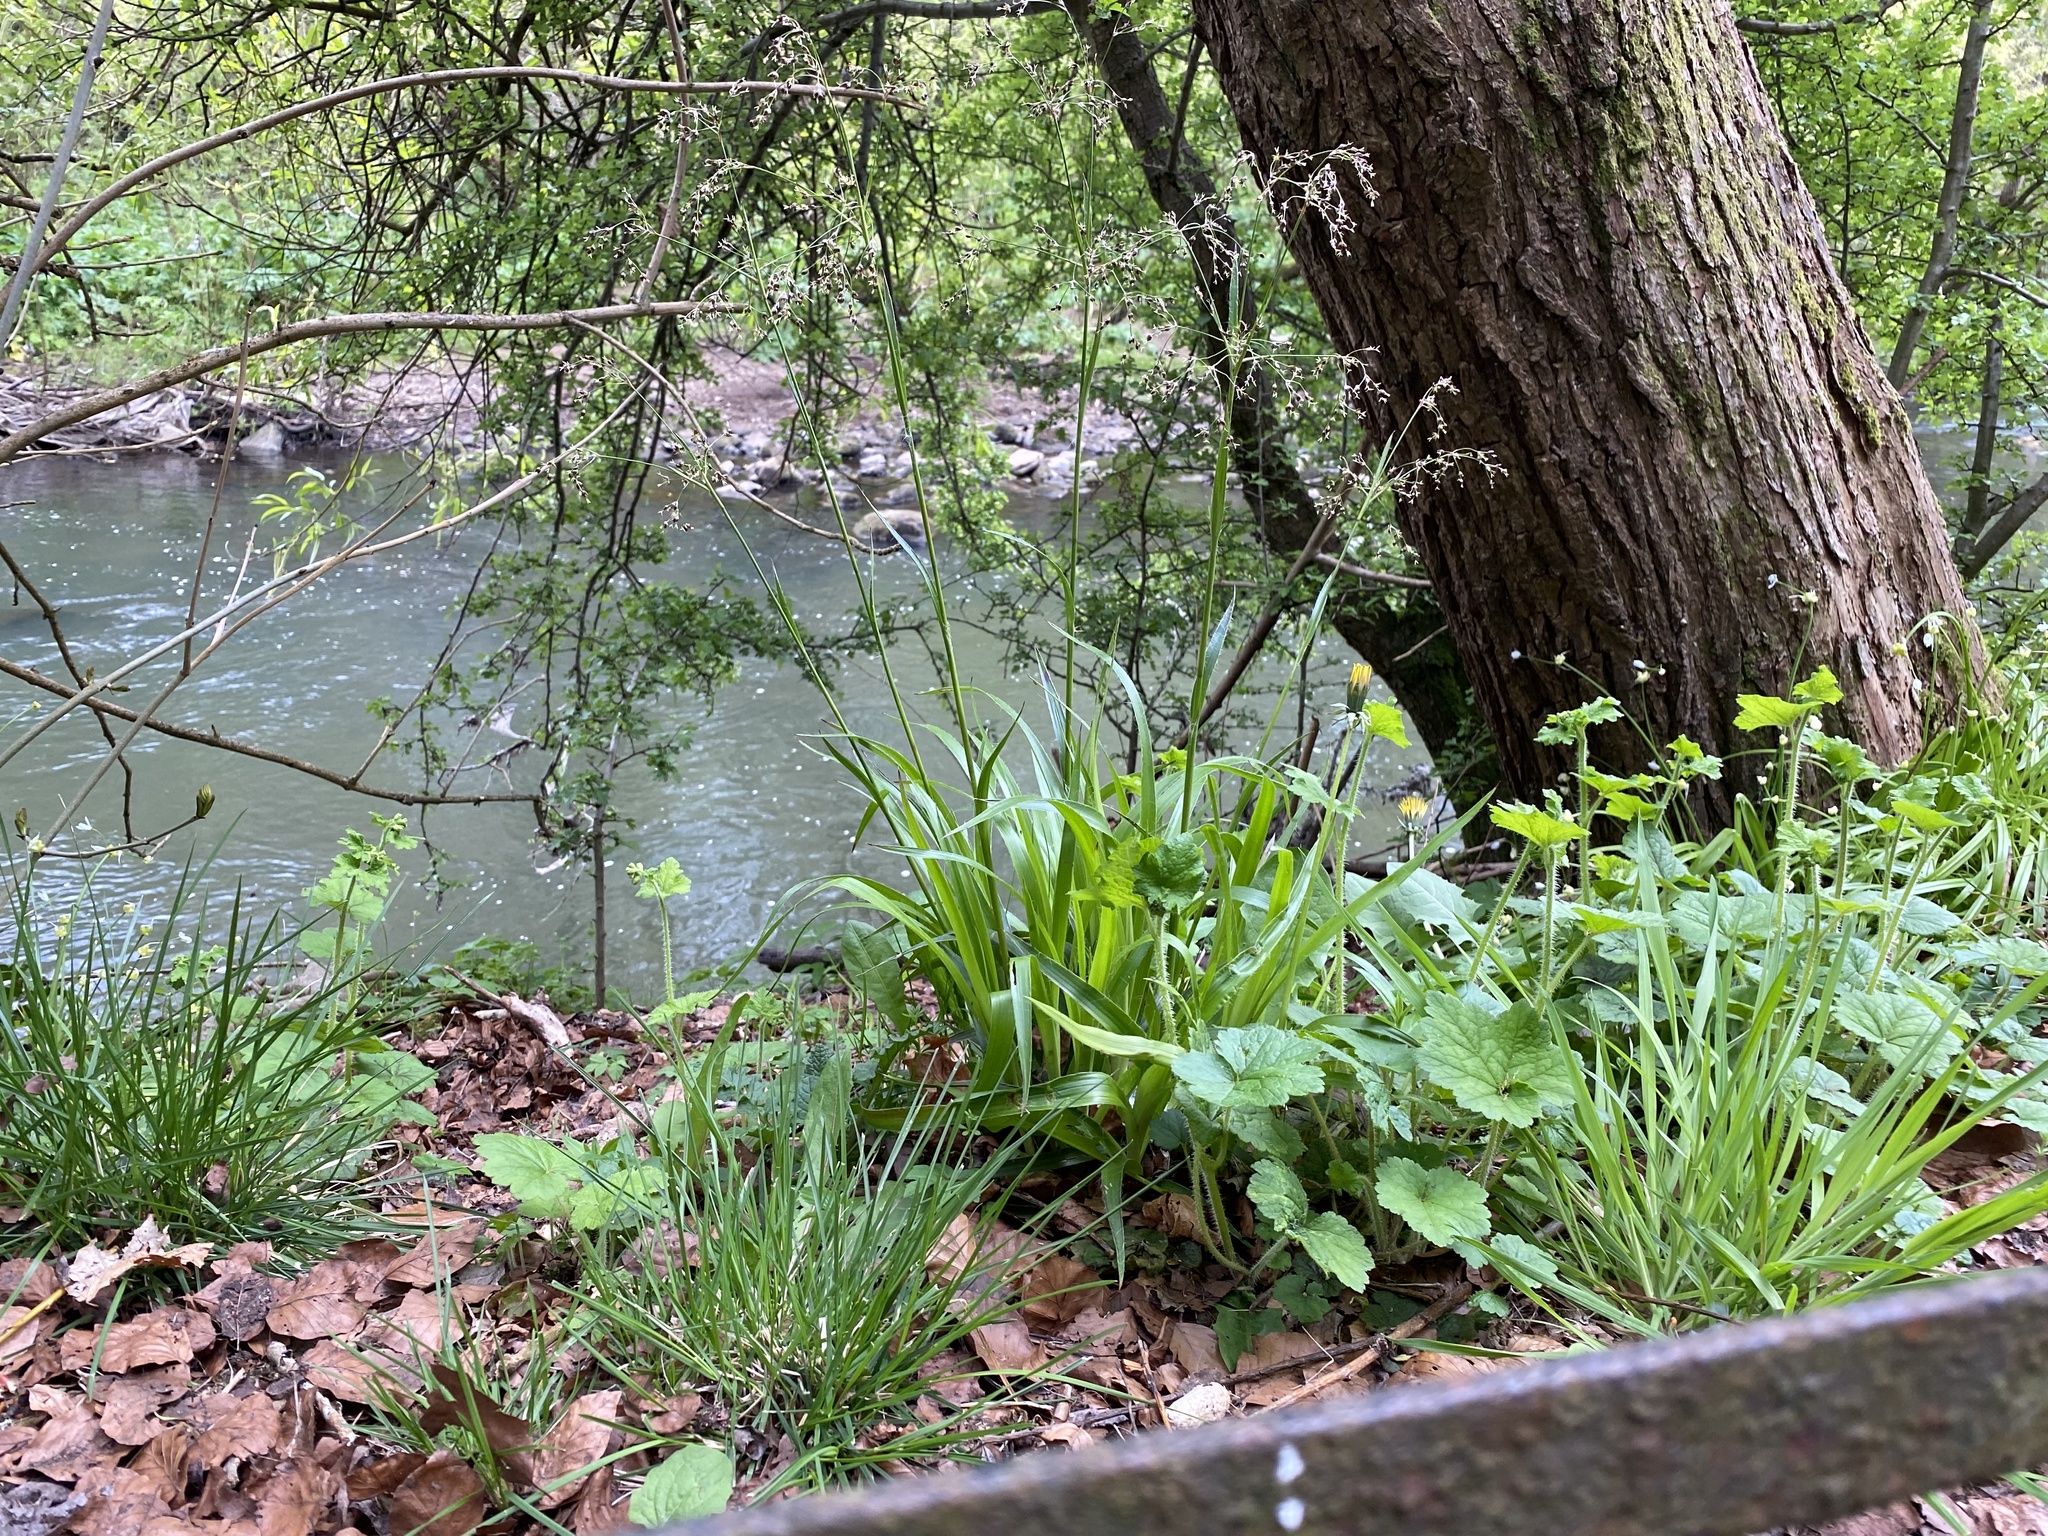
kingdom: Plantae
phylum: Tracheophyta
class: Liliopsida
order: Poales
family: Juncaceae
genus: Luzula
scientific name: Luzula sylvatica
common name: Great wood-rush
